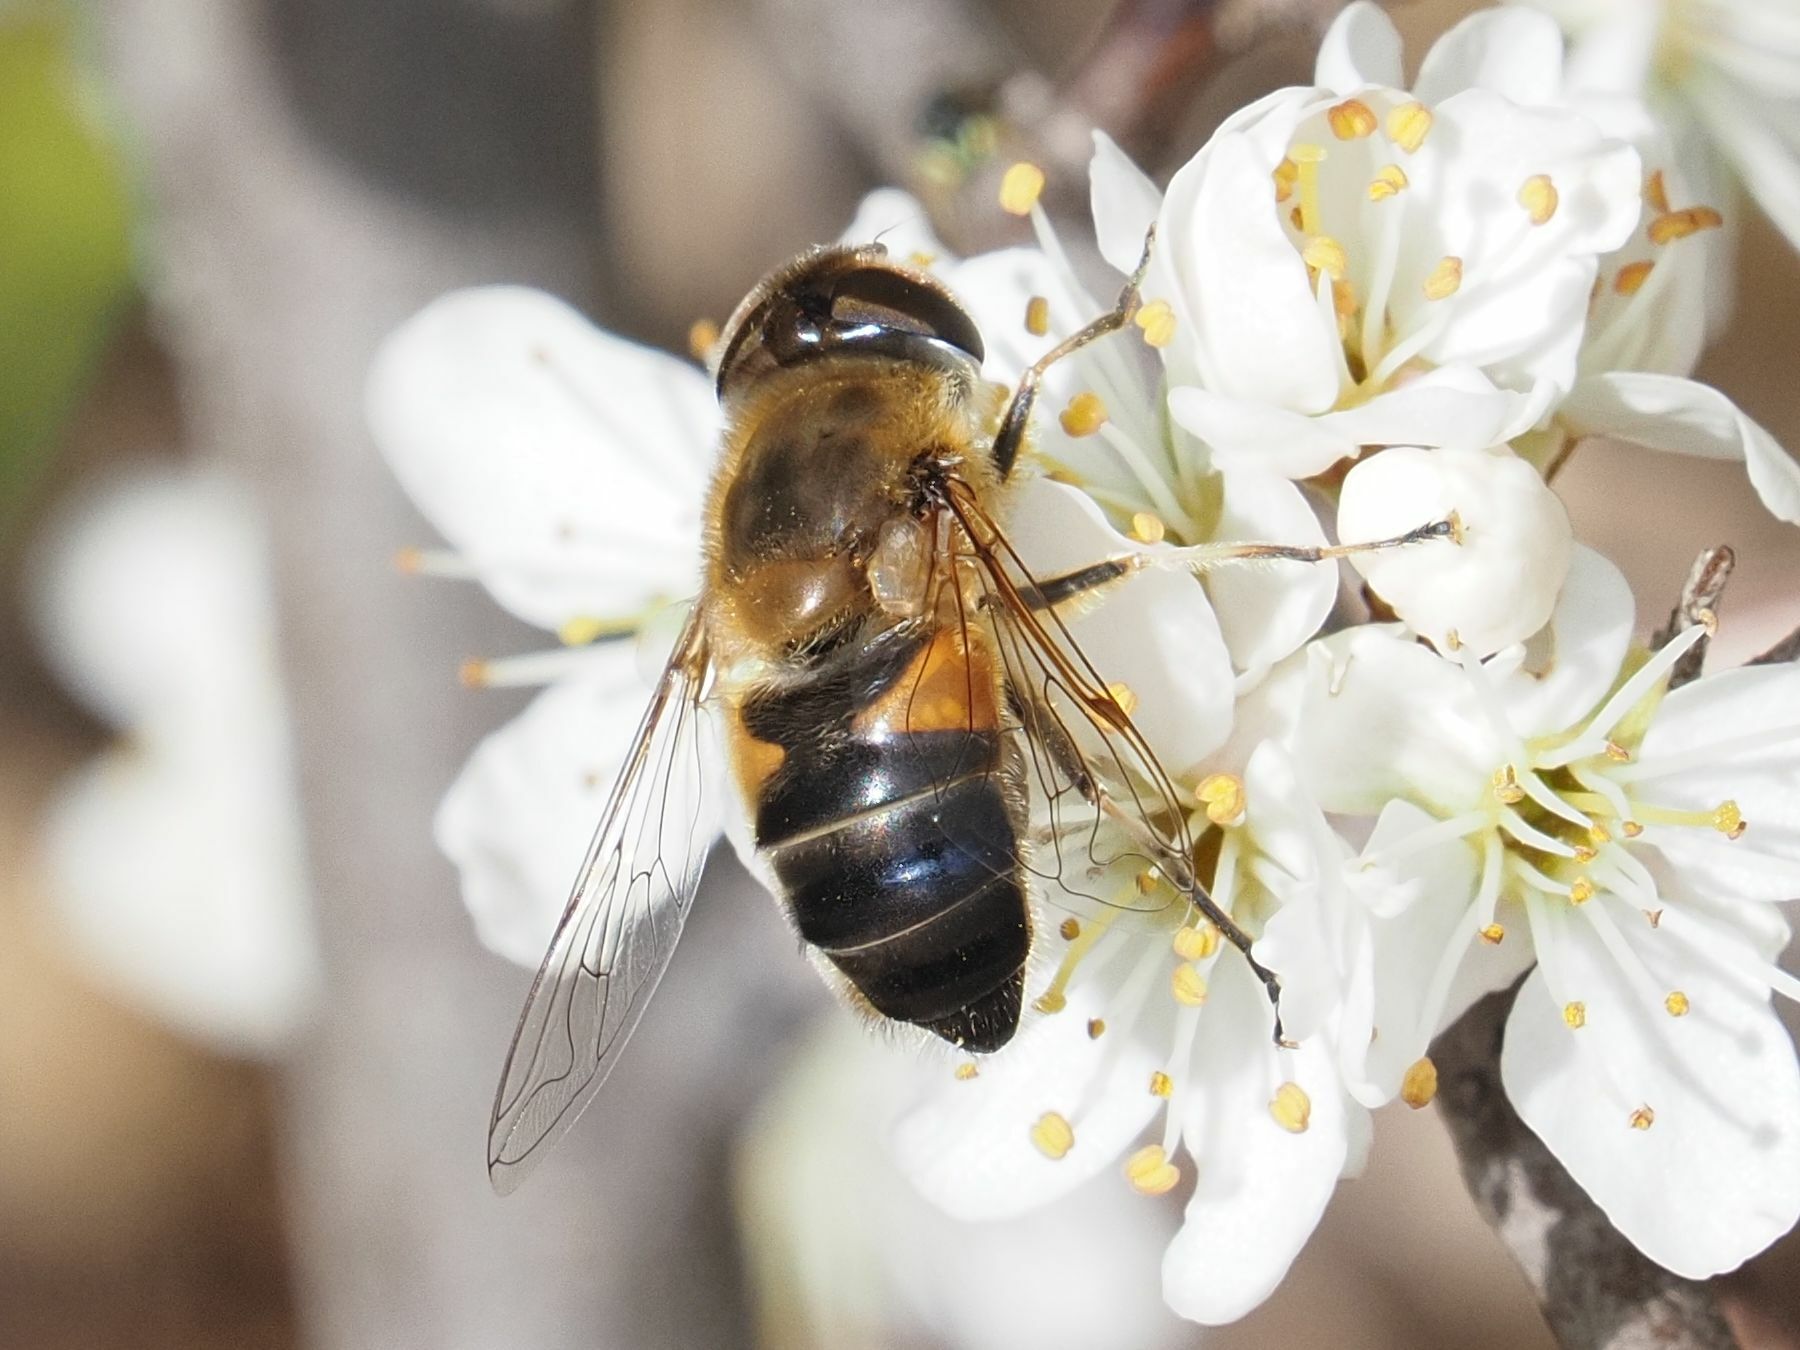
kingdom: Animalia
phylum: Arthropoda
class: Insecta
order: Diptera
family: Syrphidae
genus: Eristalis
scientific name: Eristalis pertinax
